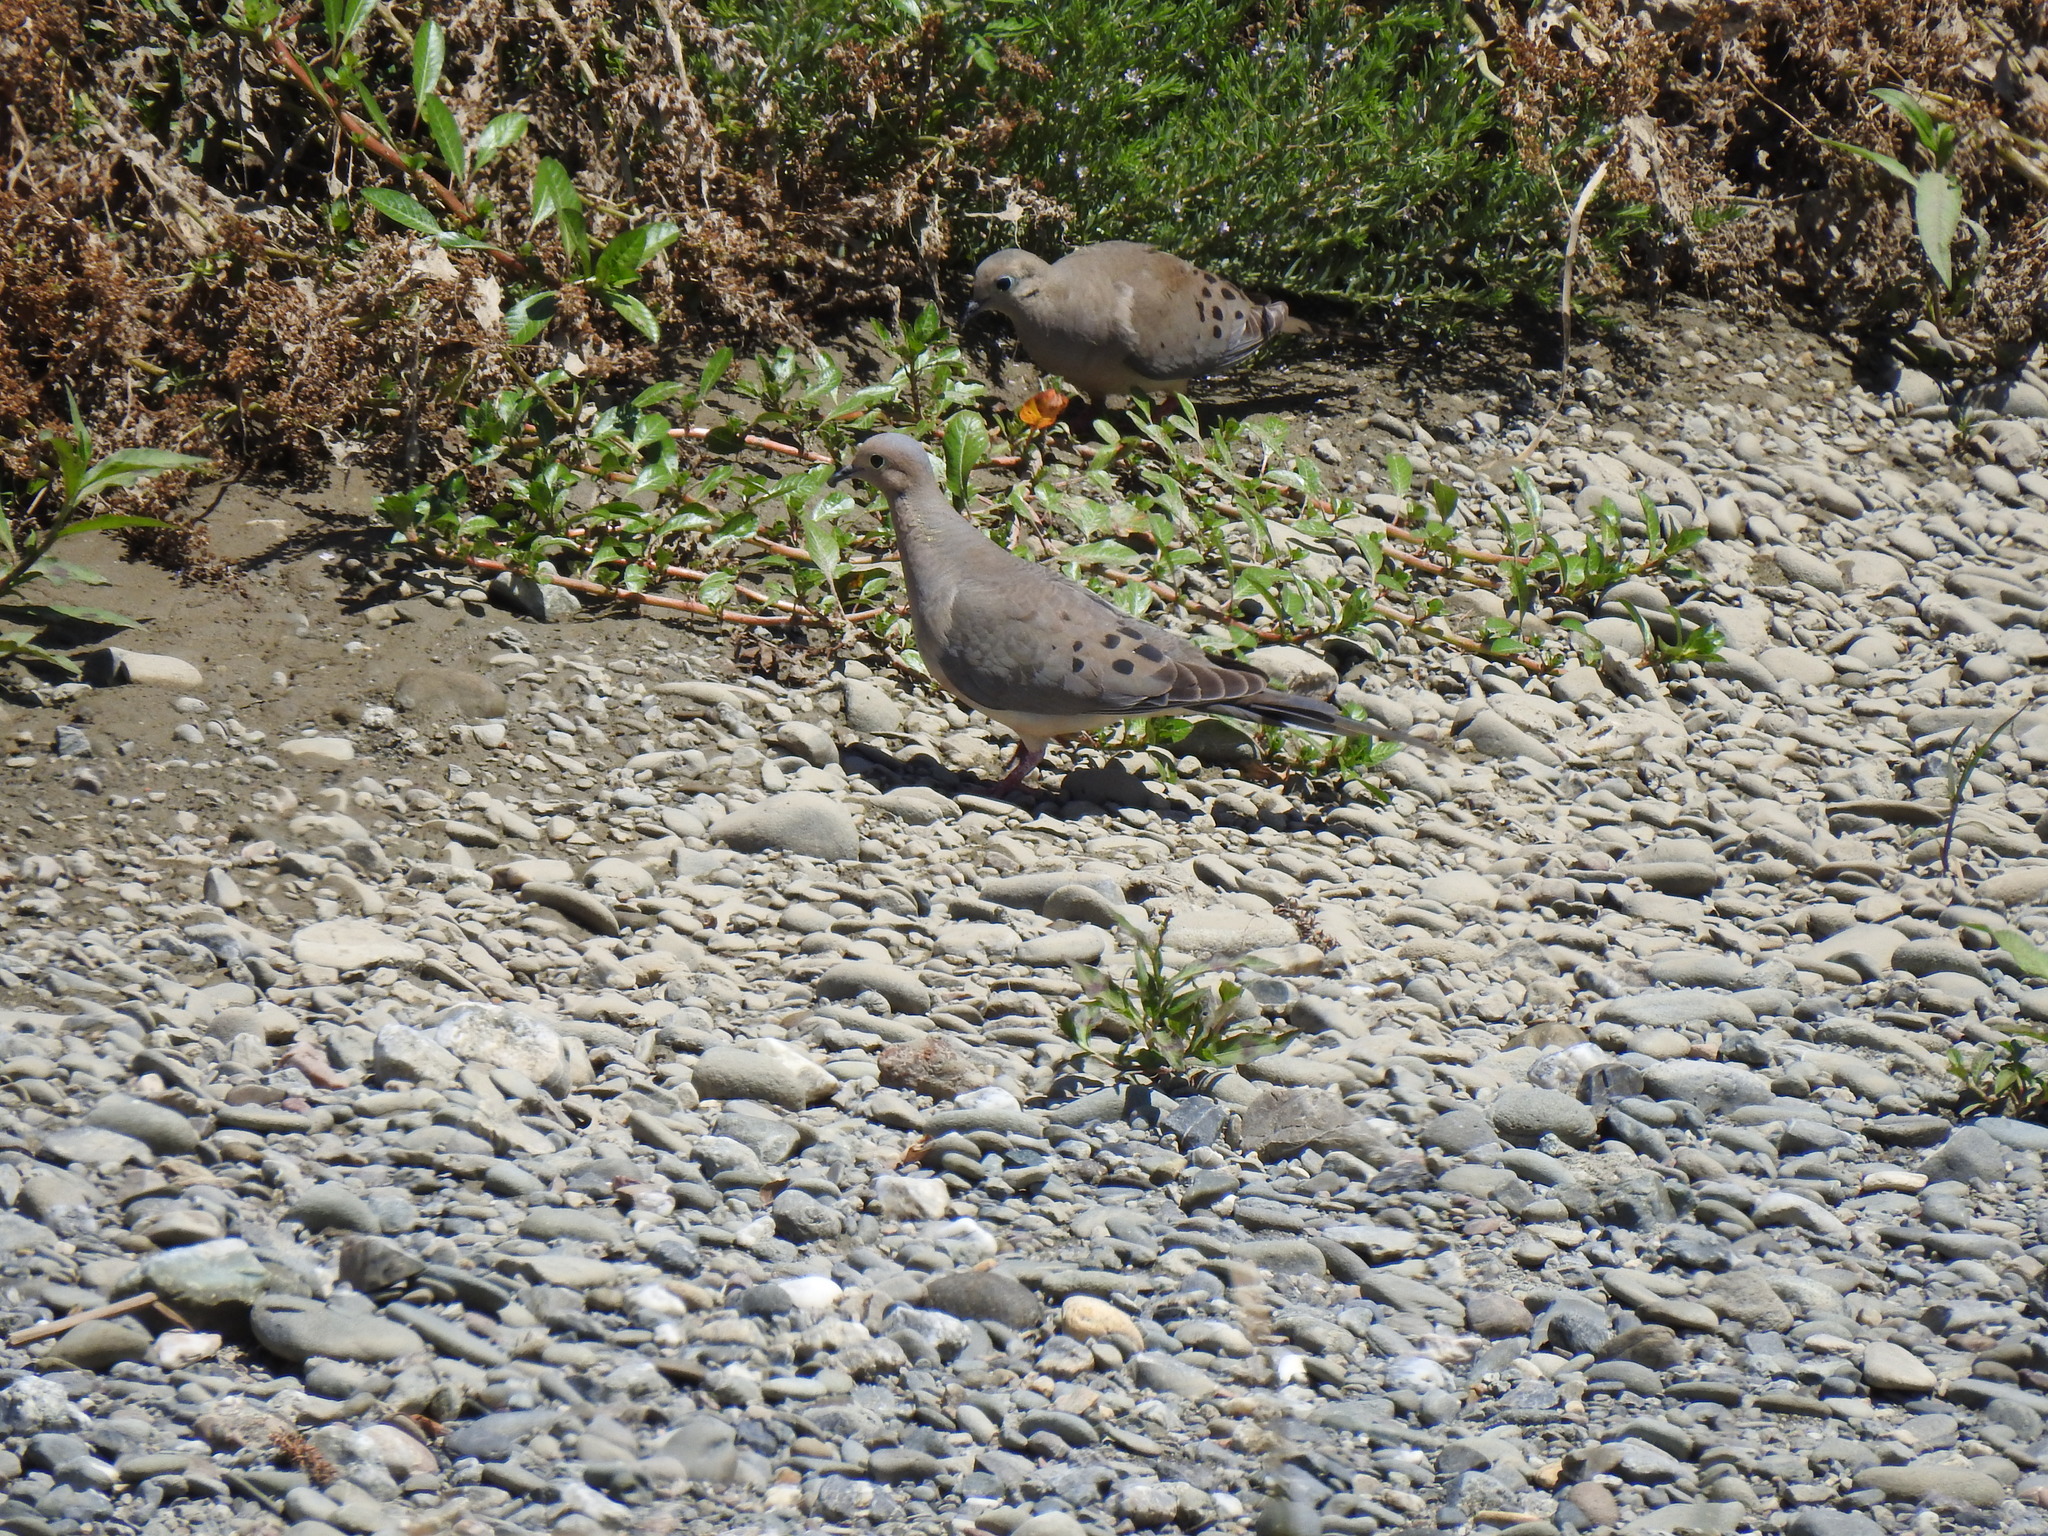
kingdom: Animalia
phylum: Chordata
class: Aves
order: Columbiformes
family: Columbidae
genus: Zenaida
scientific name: Zenaida macroura
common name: Mourning dove
